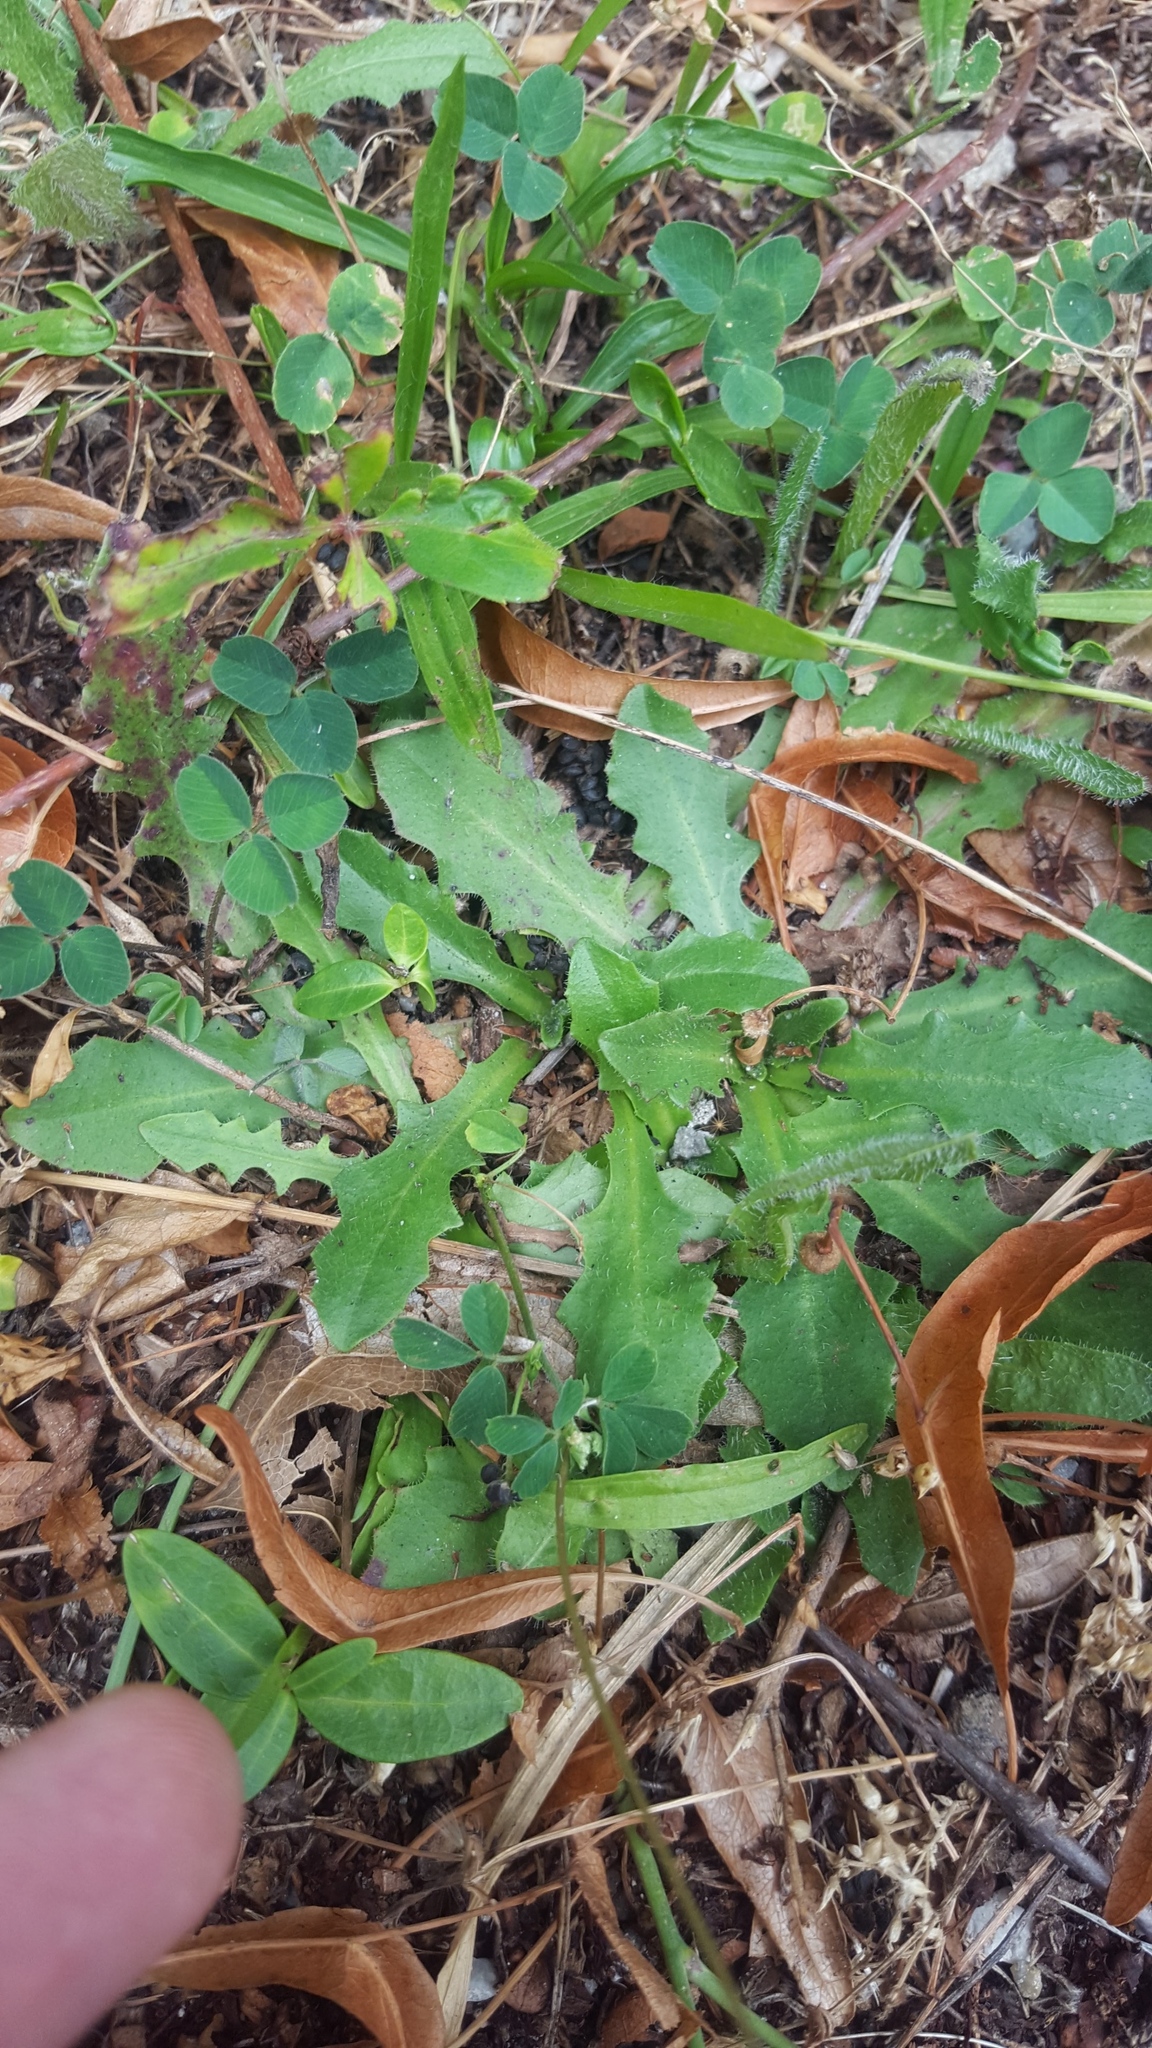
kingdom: Plantae
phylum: Tracheophyta
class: Magnoliopsida
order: Asterales
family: Asteraceae
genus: Hypochaeris
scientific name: Hypochaeris radicata
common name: Flatweed
